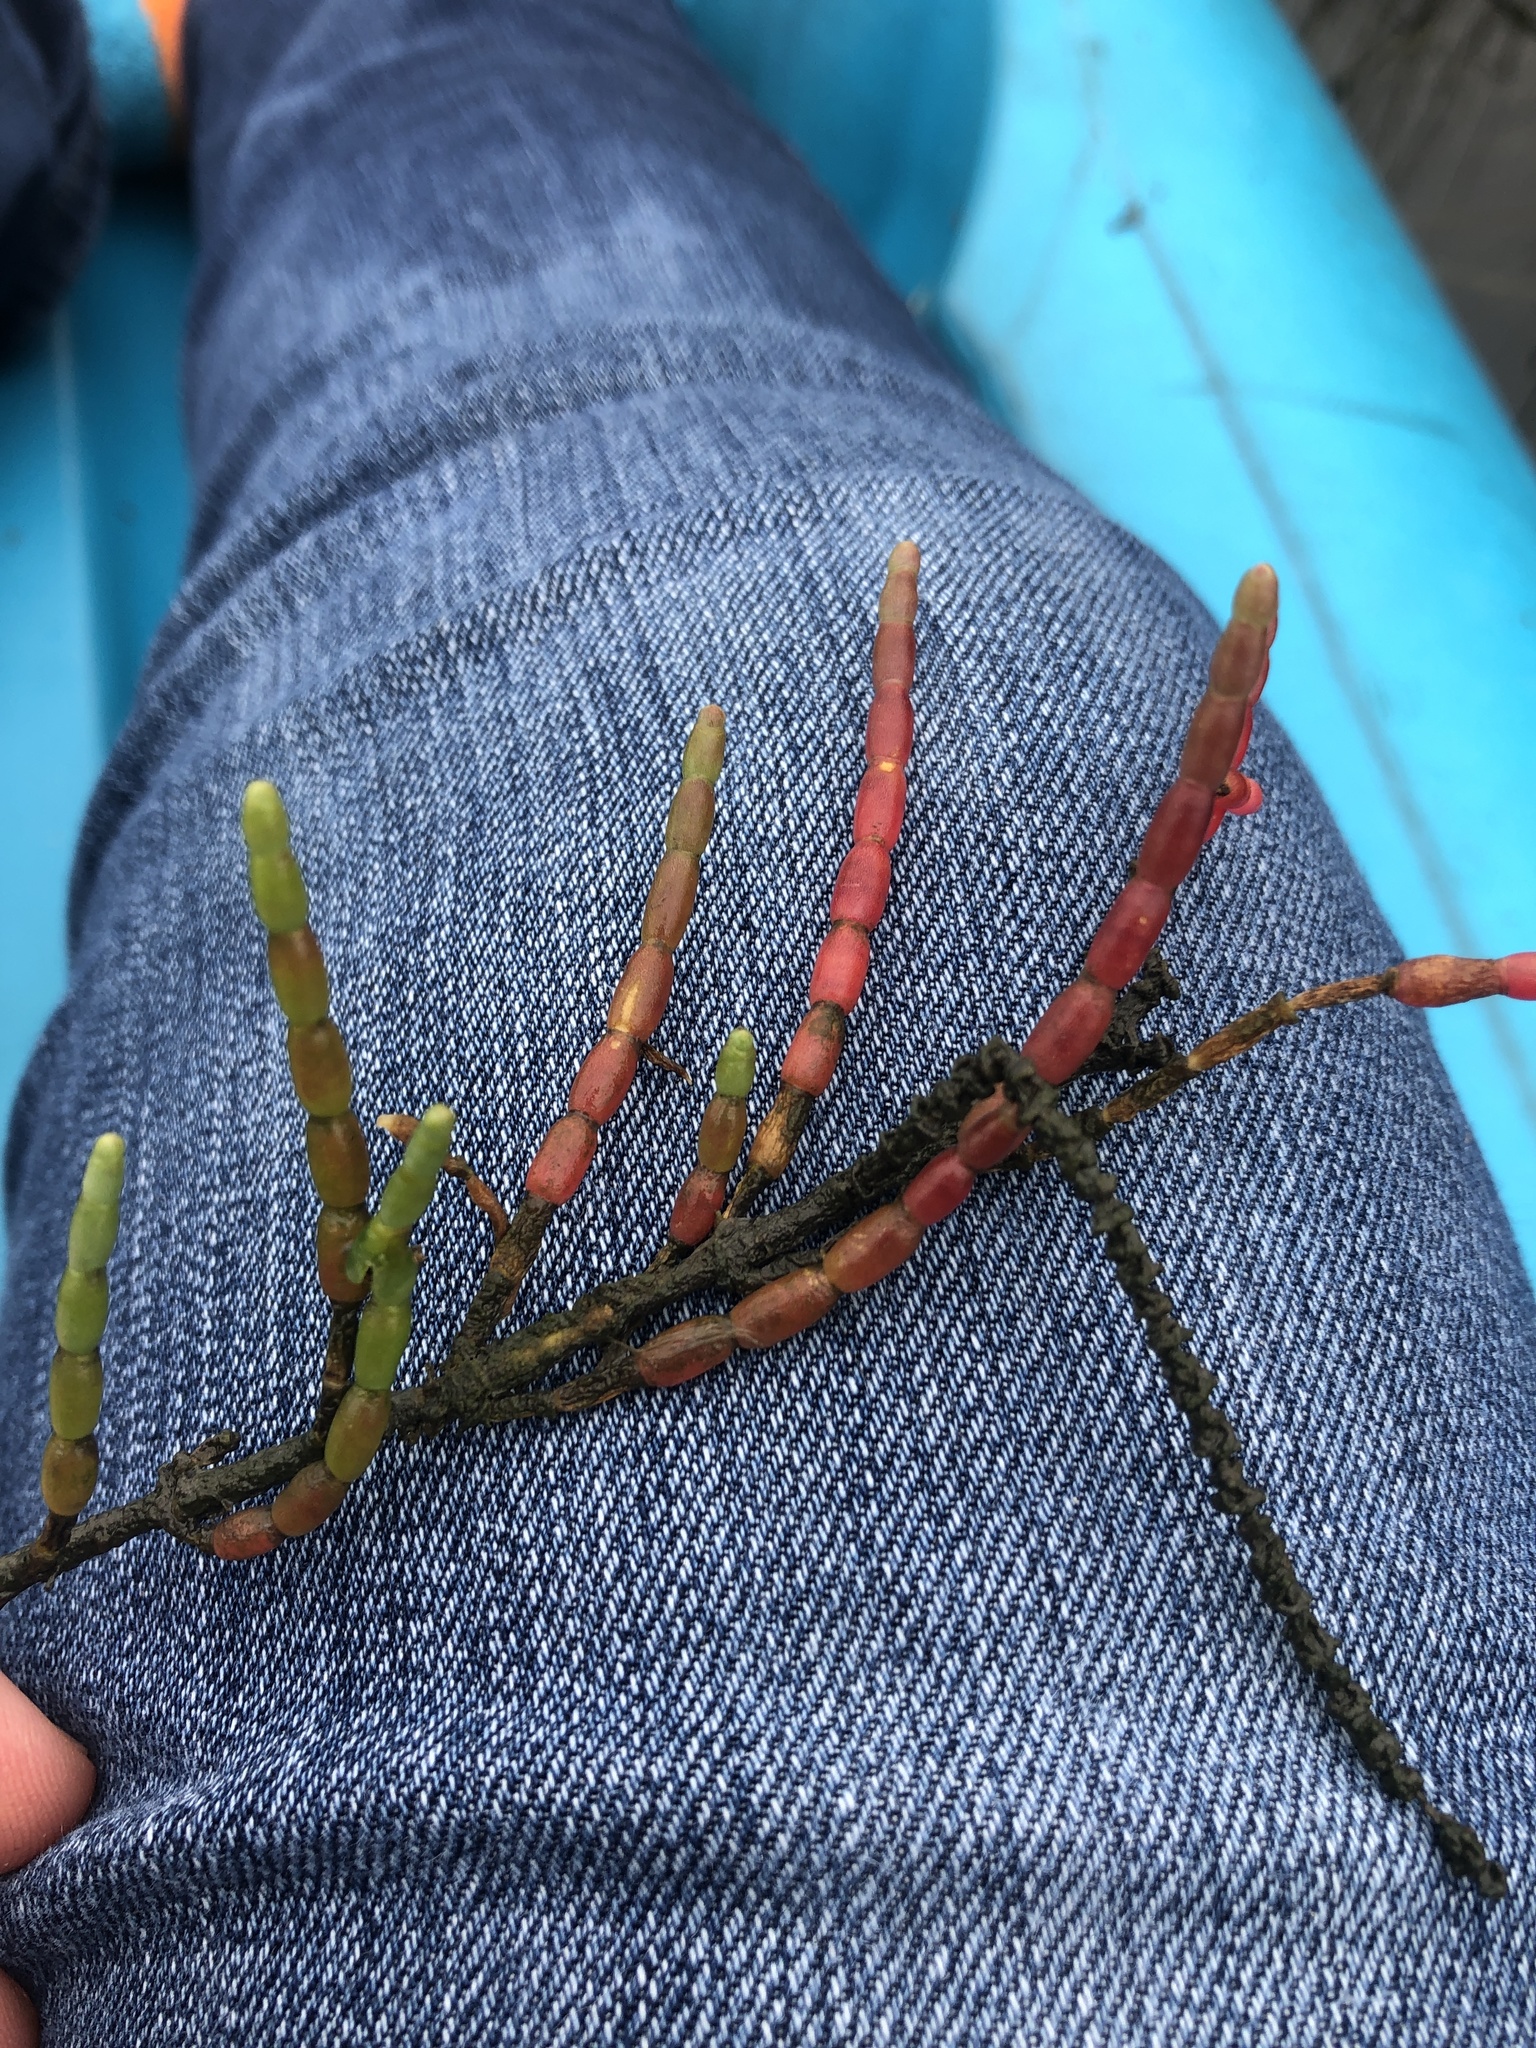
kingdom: Plantae
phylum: Tracheophyta
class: Magnoliopsida
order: Caryophyllales
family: Amaranthaceae
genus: Salicornia
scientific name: Salicornia ambigua
